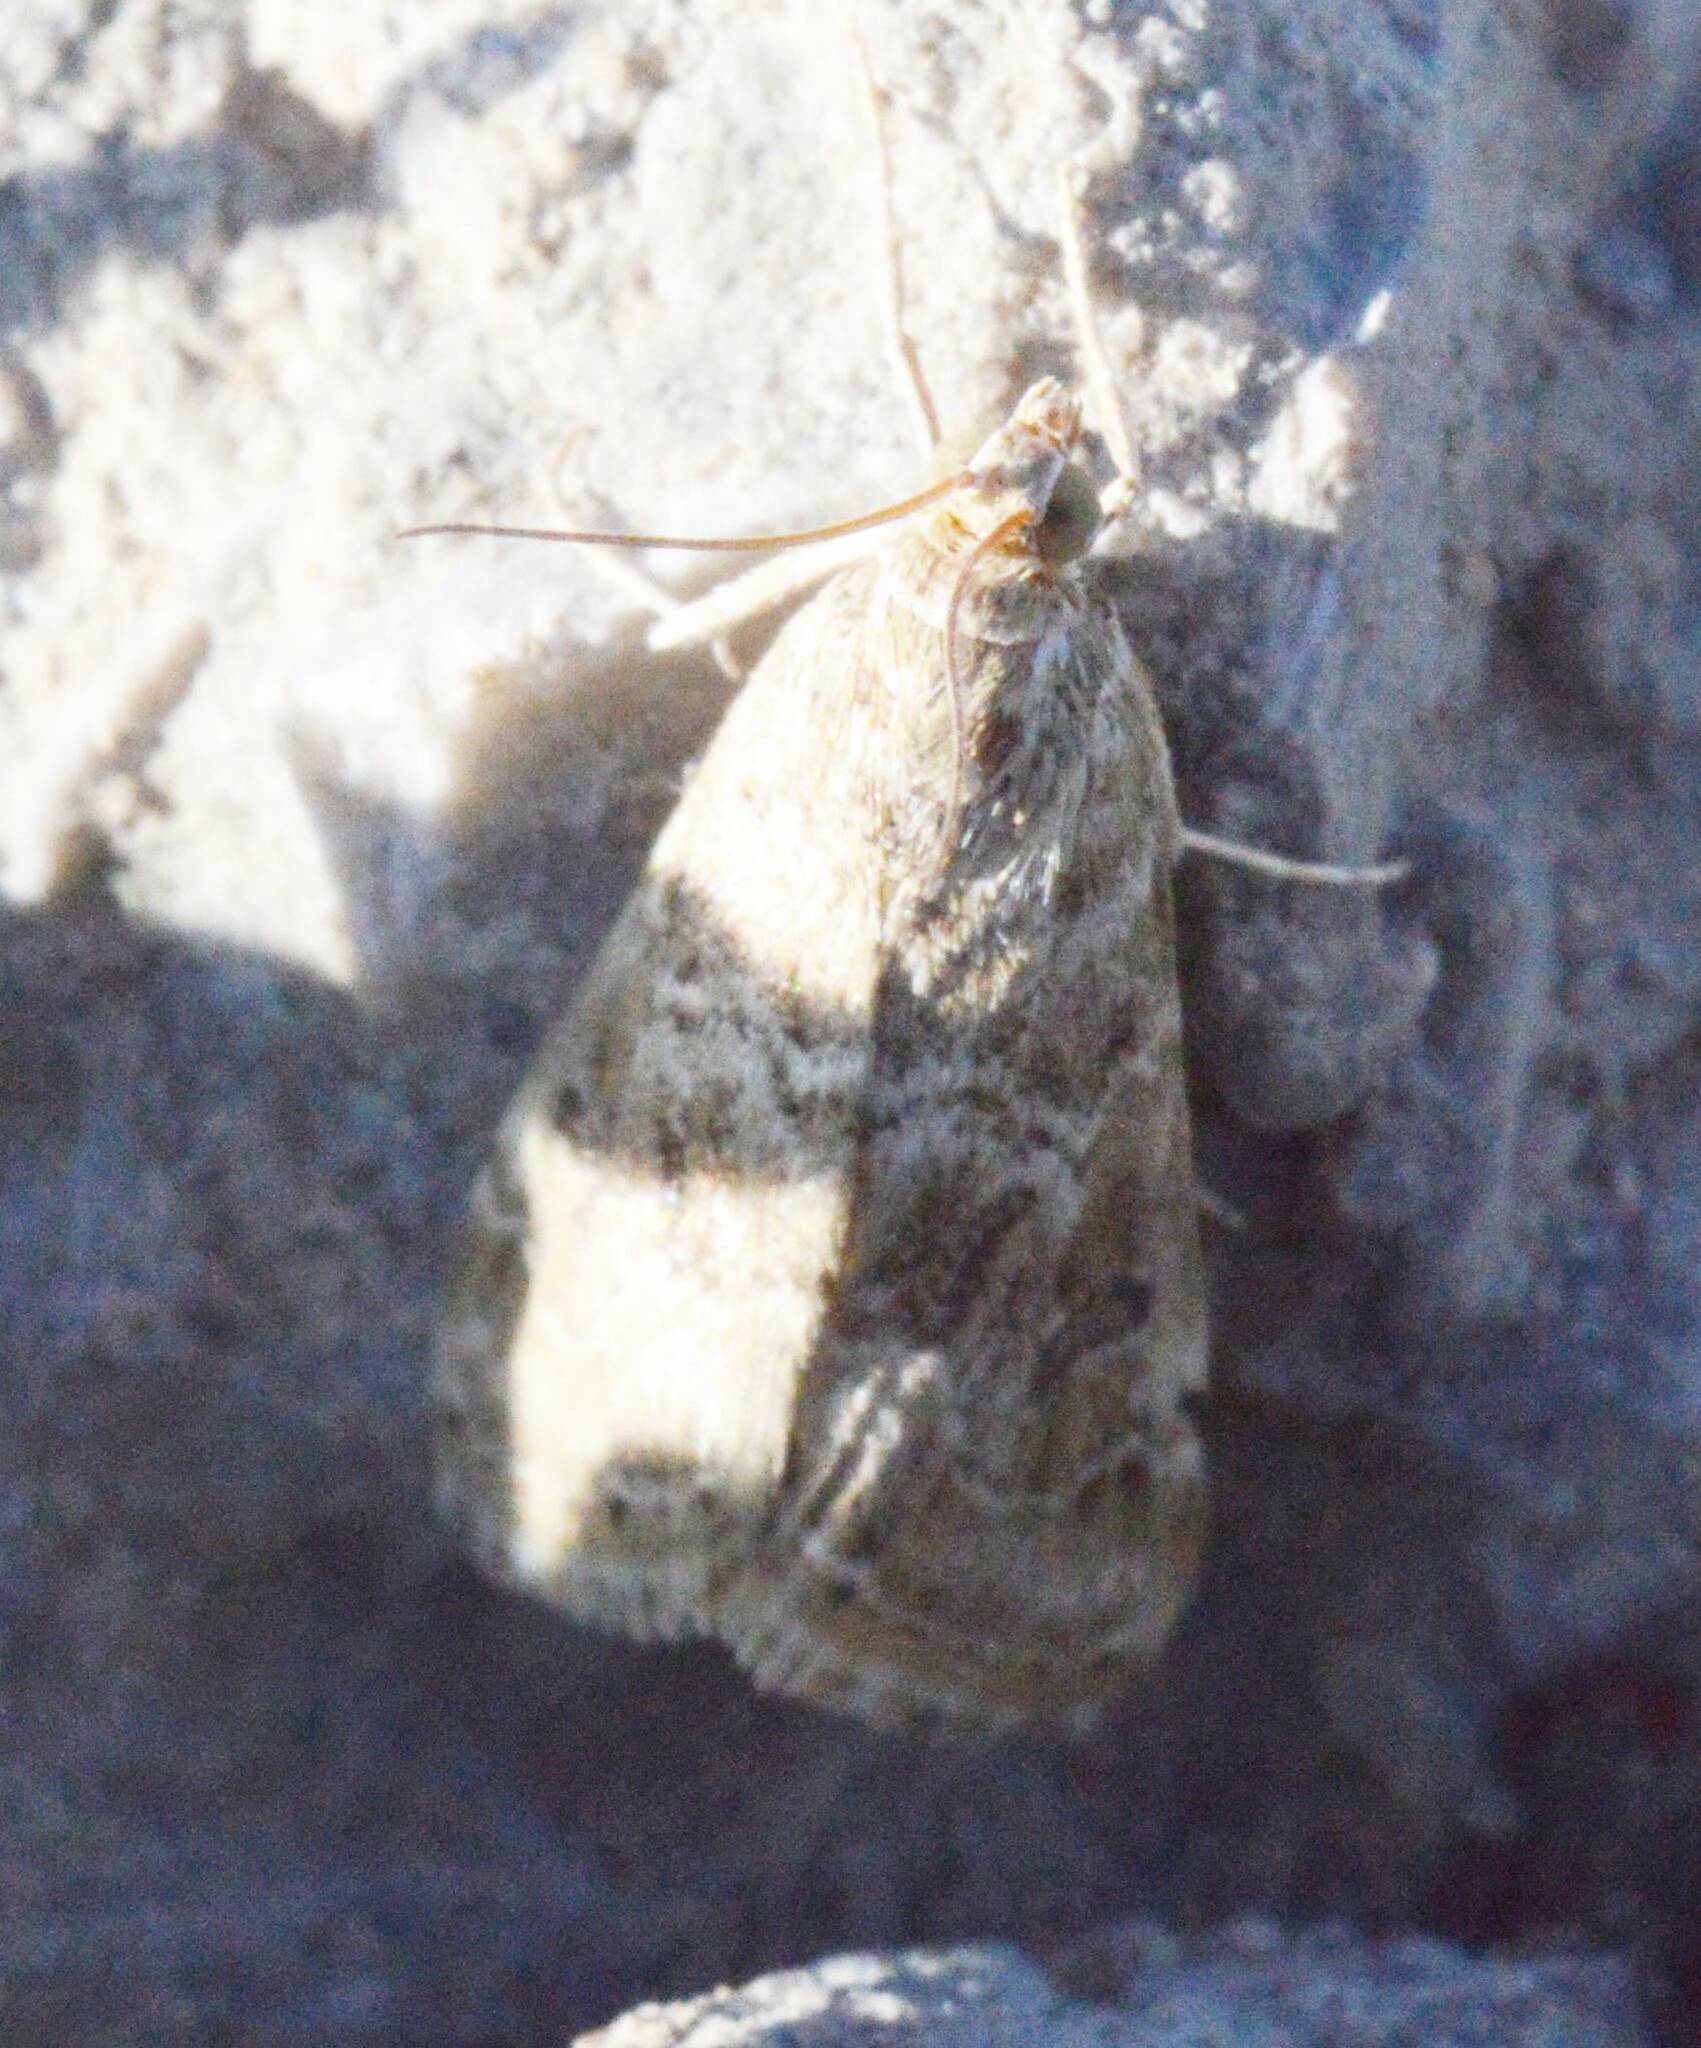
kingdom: Animalia
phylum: Arthropoda
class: Insecta
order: Lepidoptera
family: Crambidae
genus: Hellula
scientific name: Hellula undalis
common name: Cabbage webworm
